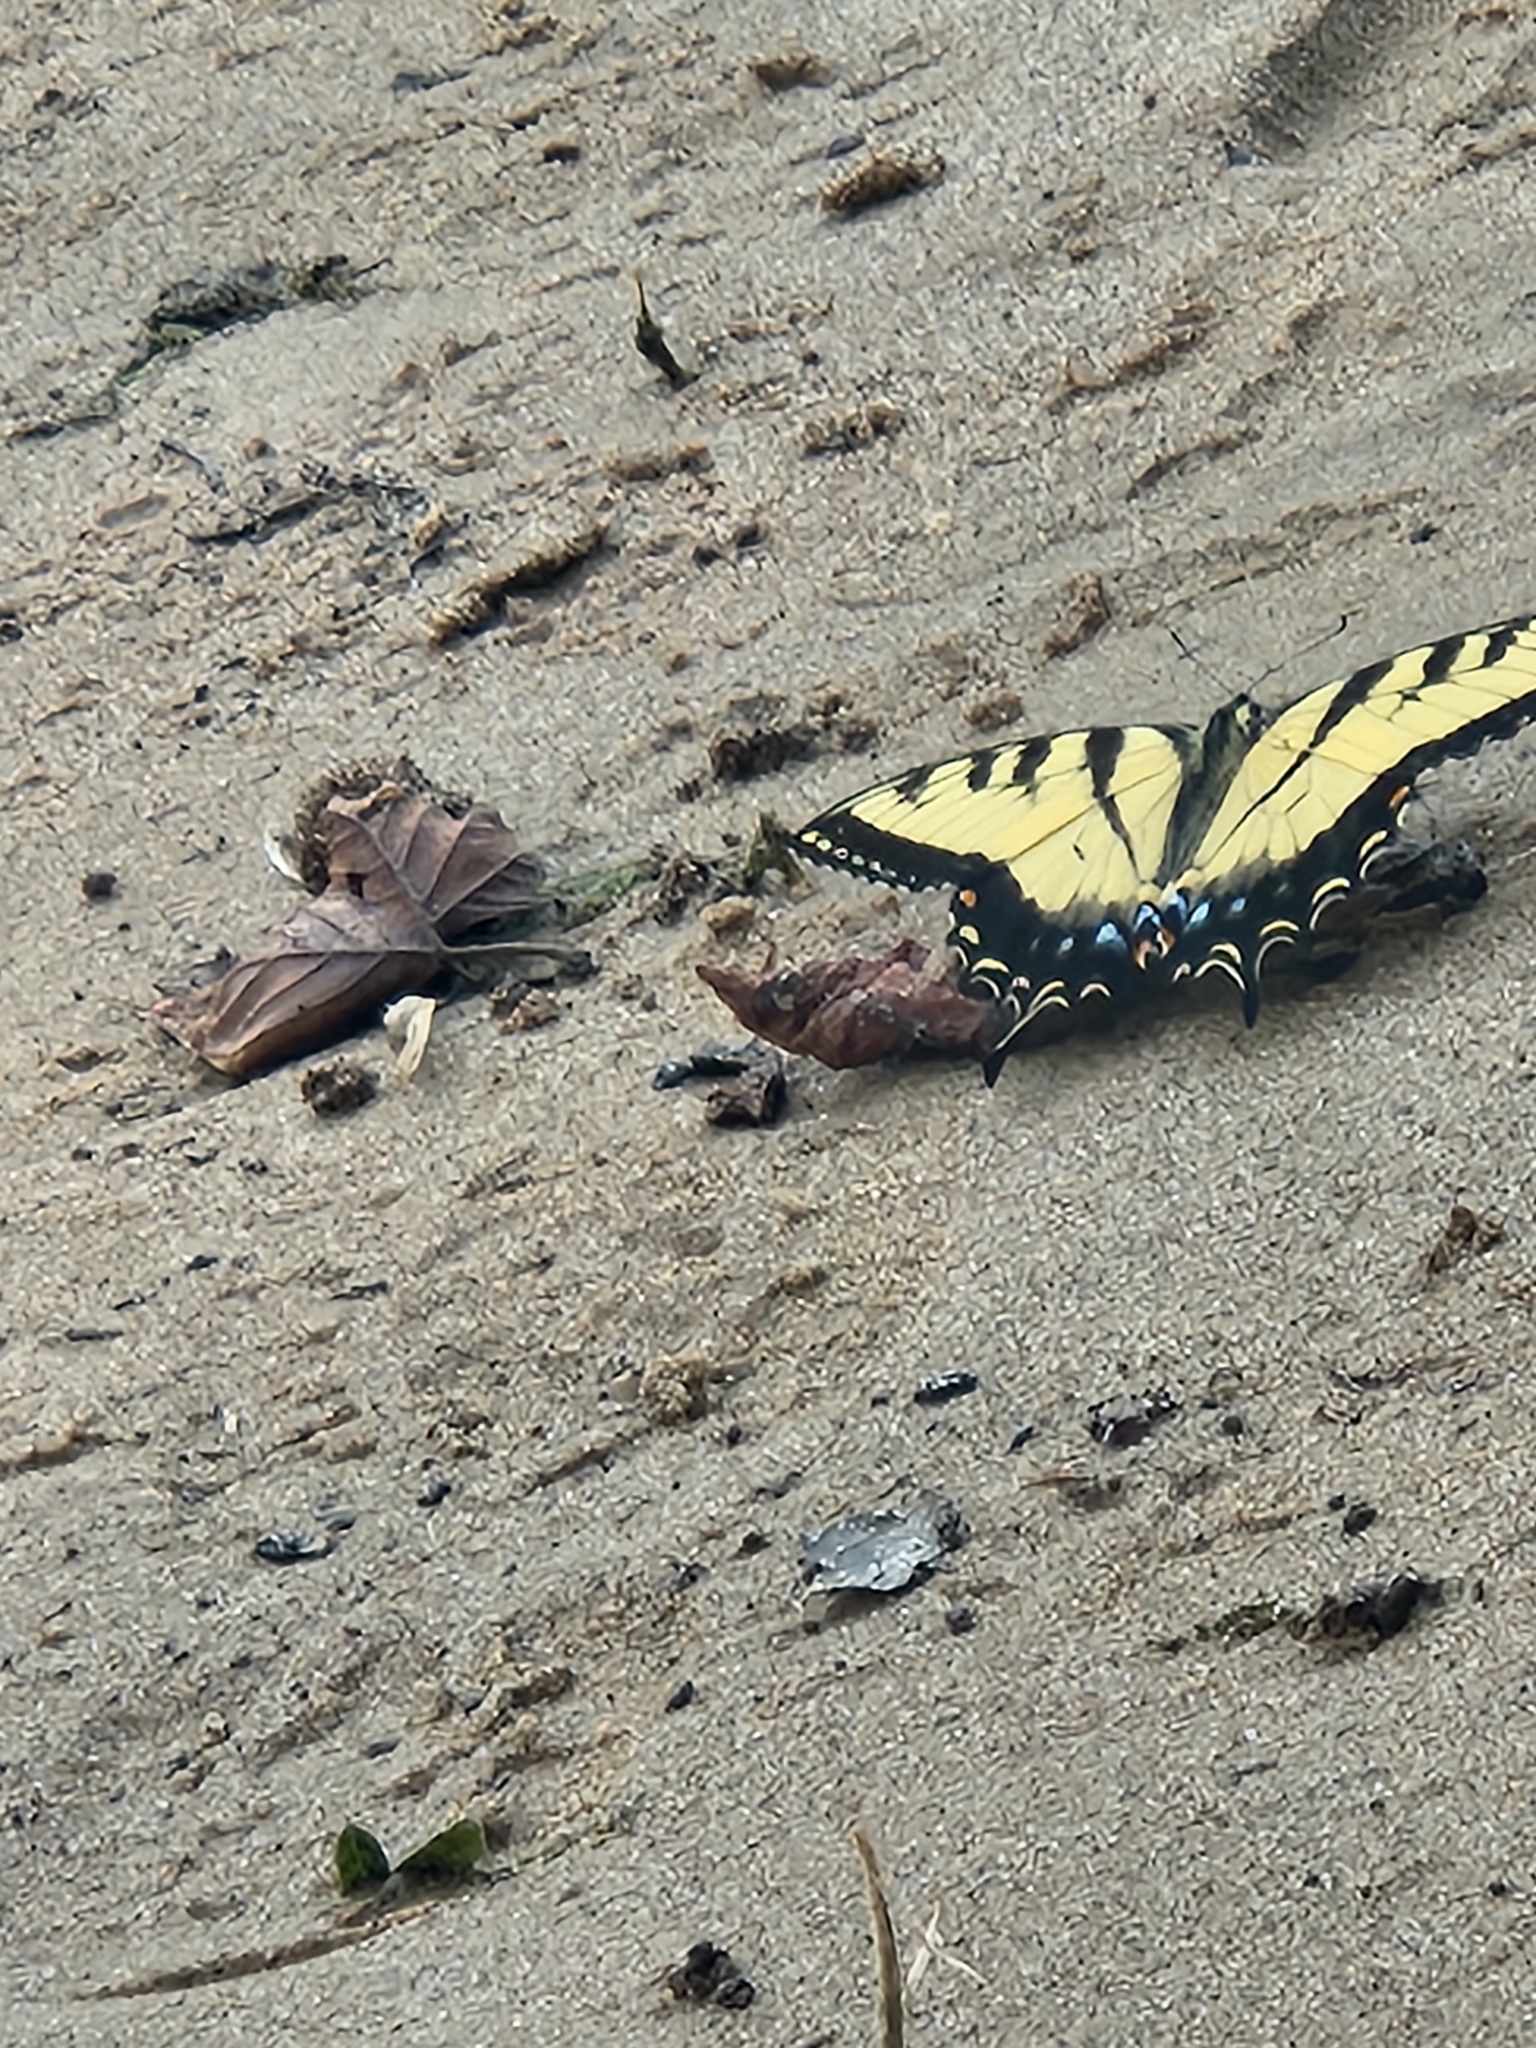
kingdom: Animalia
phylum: Arthropoda
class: Insecta
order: Lepidoptera
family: Papilionidae
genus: Papilio
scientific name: Papilio glaucus
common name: Tiger swallowtail
